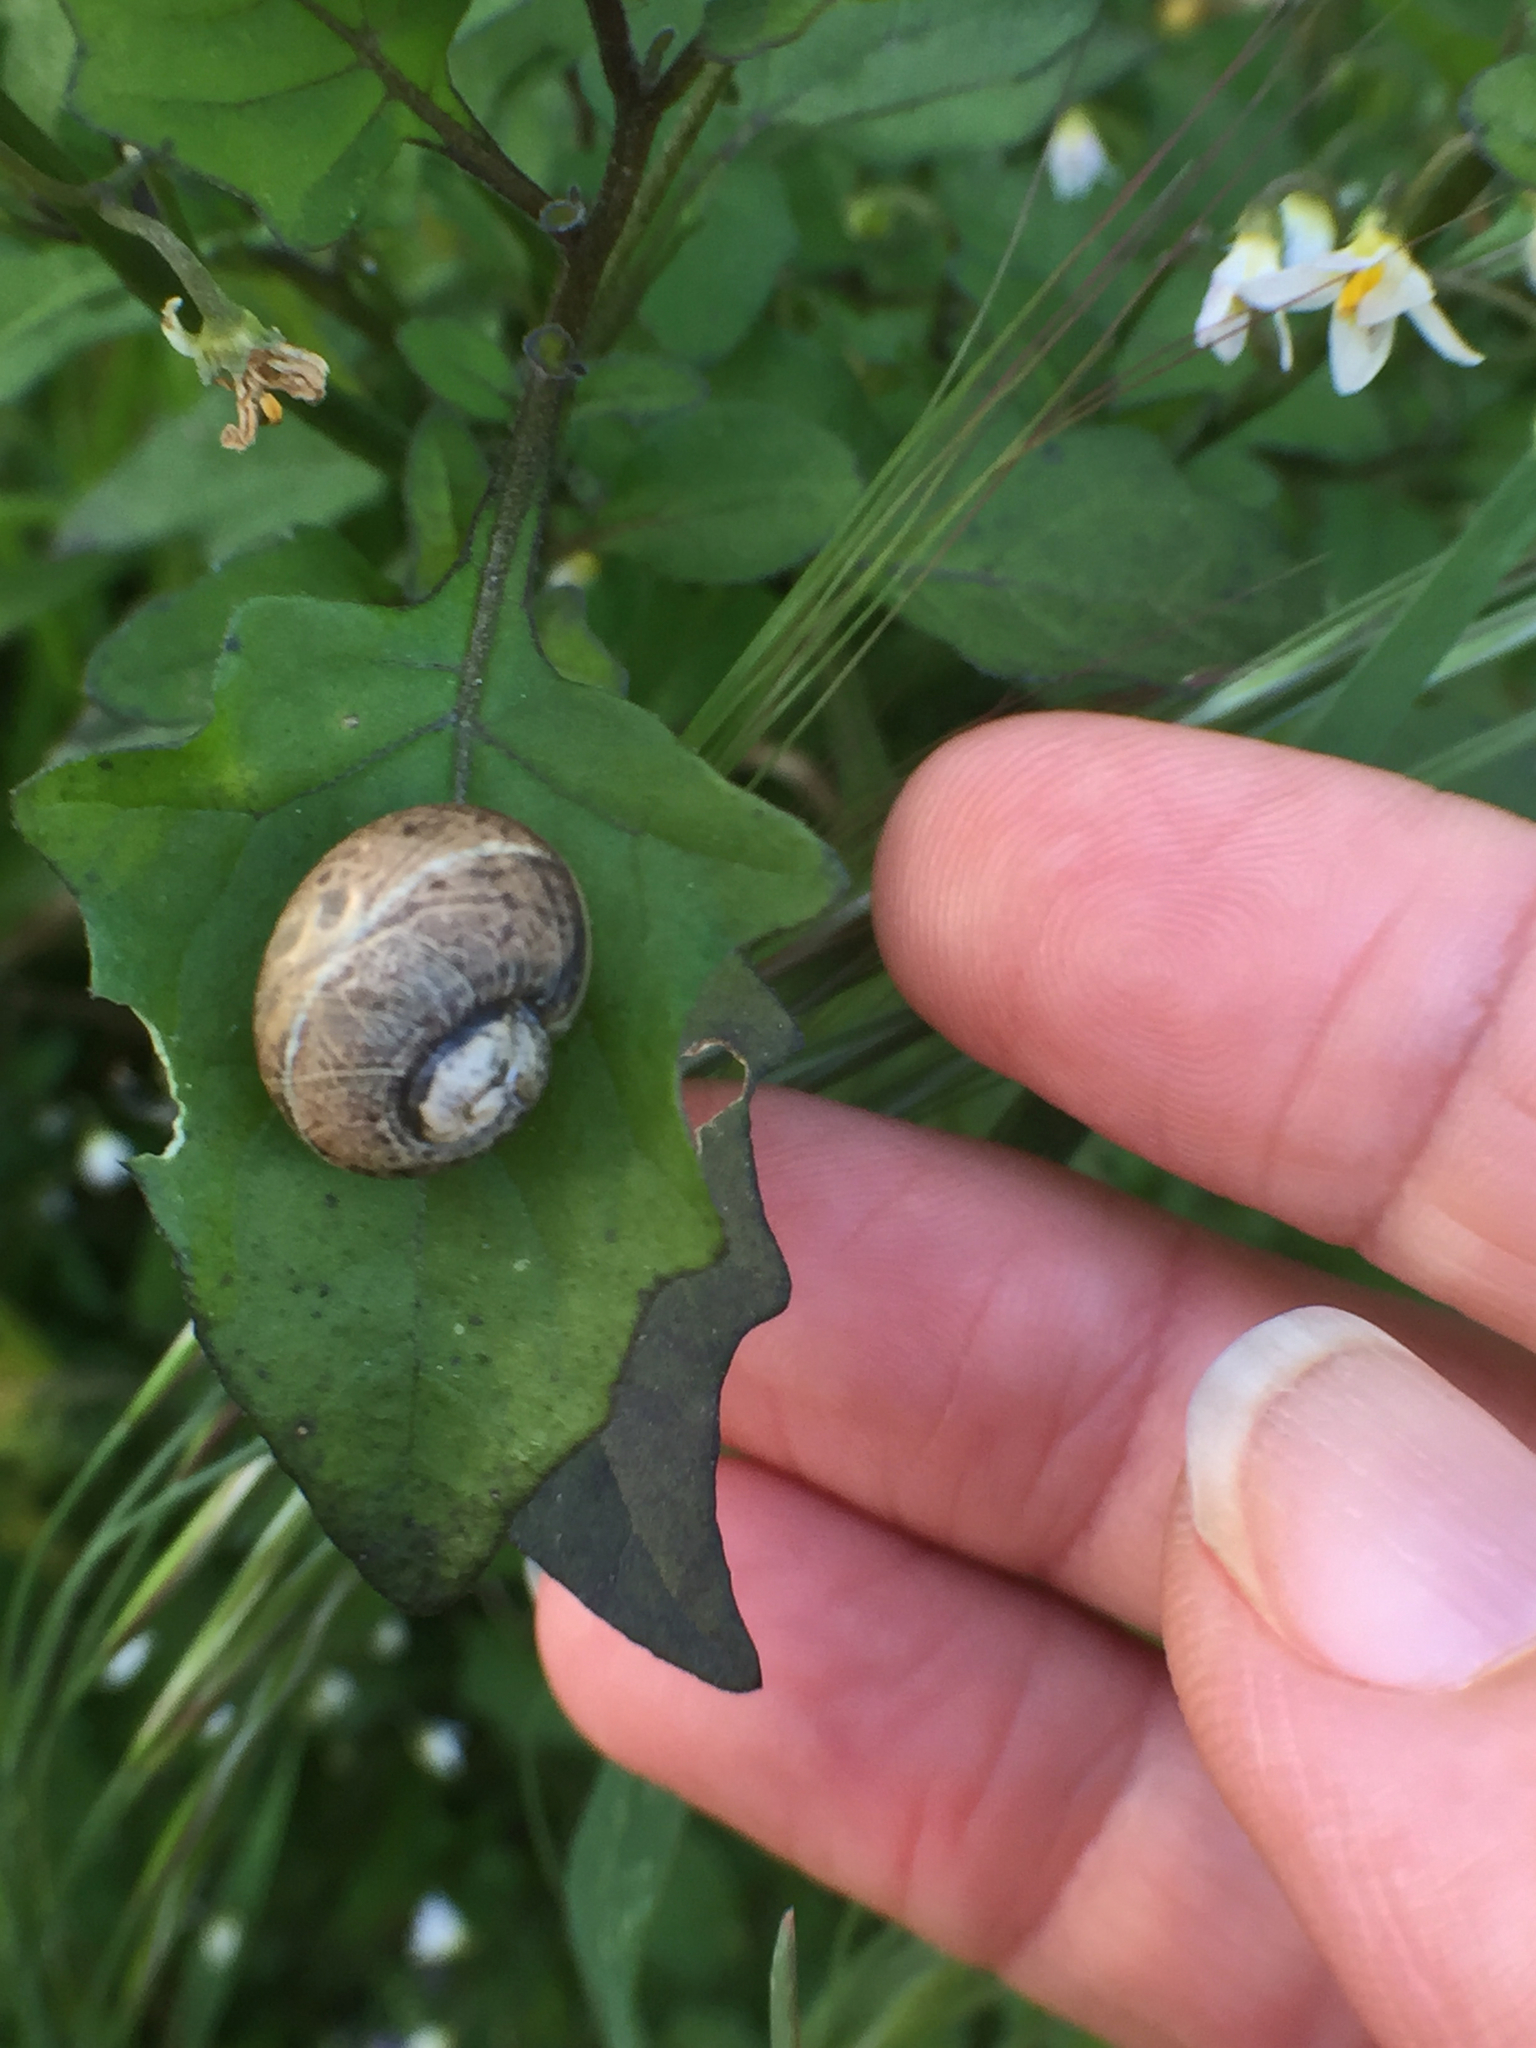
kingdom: Animalia
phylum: Mollusca
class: Gastropoda
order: Stylommatophora
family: Helicidae
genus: Cornu
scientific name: Cornu aspersum
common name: Brown garden snail
